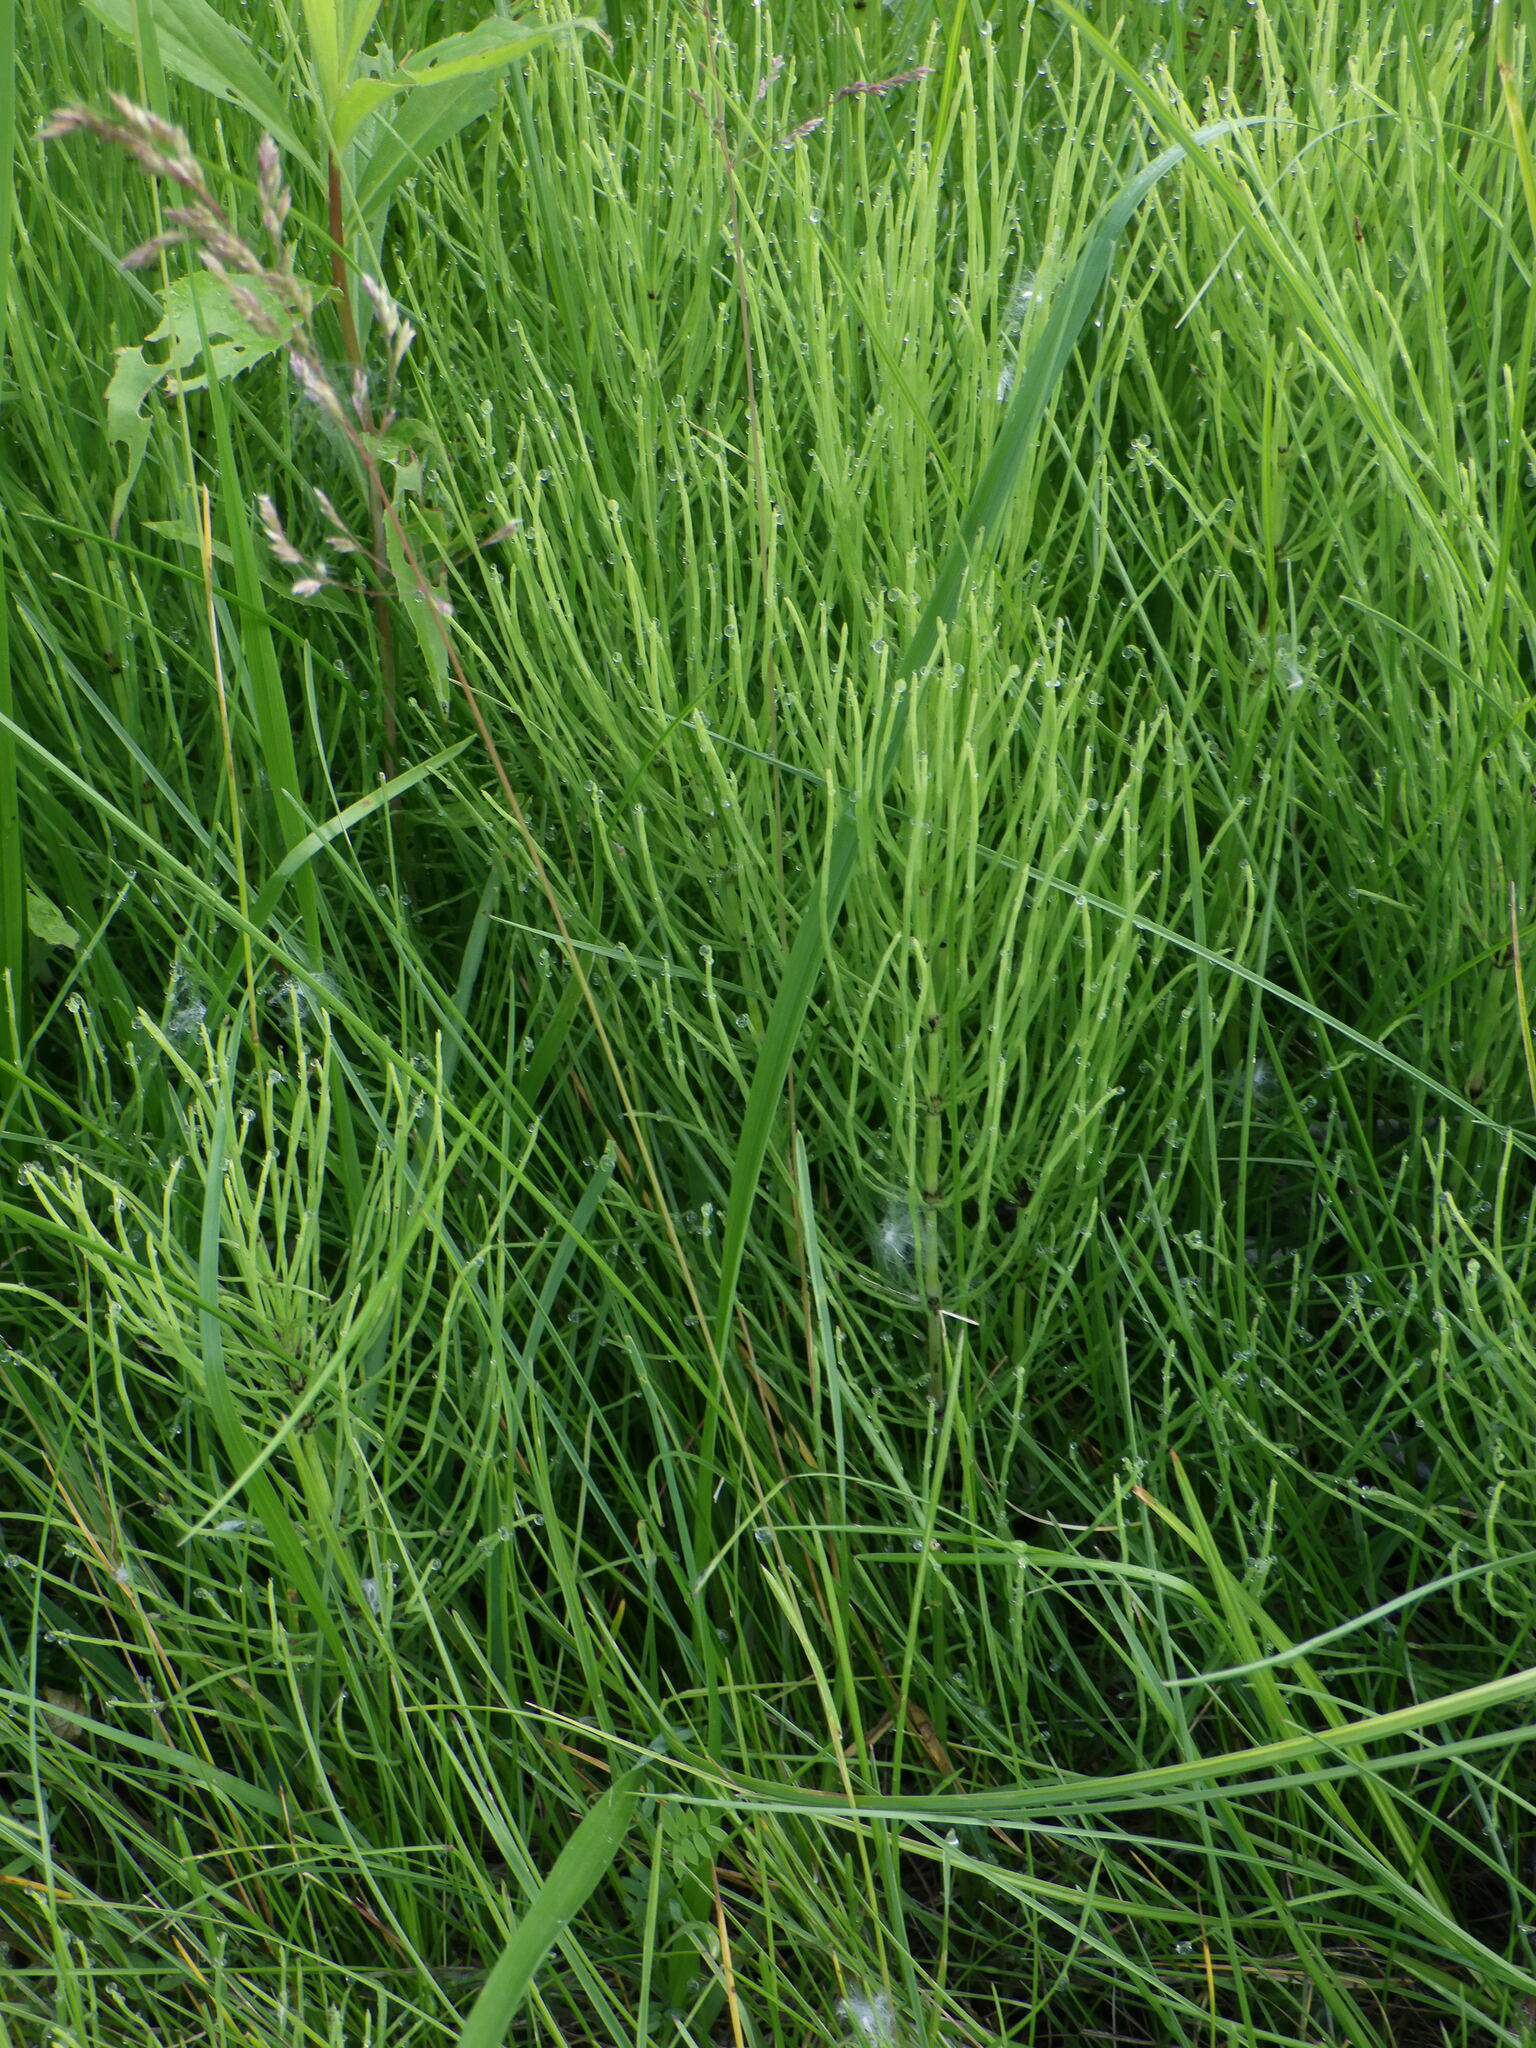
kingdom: Plantae
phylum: Tracheophyta
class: Polypodiopsida
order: Equisetales
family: Equisetaceae
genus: Equisetum
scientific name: Equisetum arvense
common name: Field horsetail
